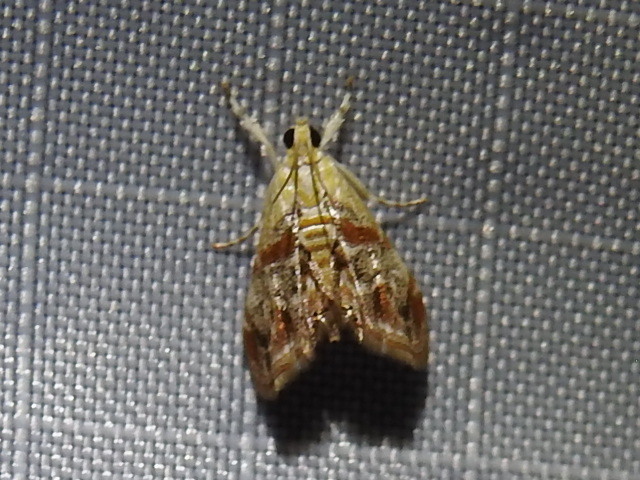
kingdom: Animalia
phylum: Arthropoda
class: Insecta
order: Lepidoptera
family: Crambidae
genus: Dicymolomia
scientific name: Dicymolomia julianalis
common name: Julia's dicymolomia moth
